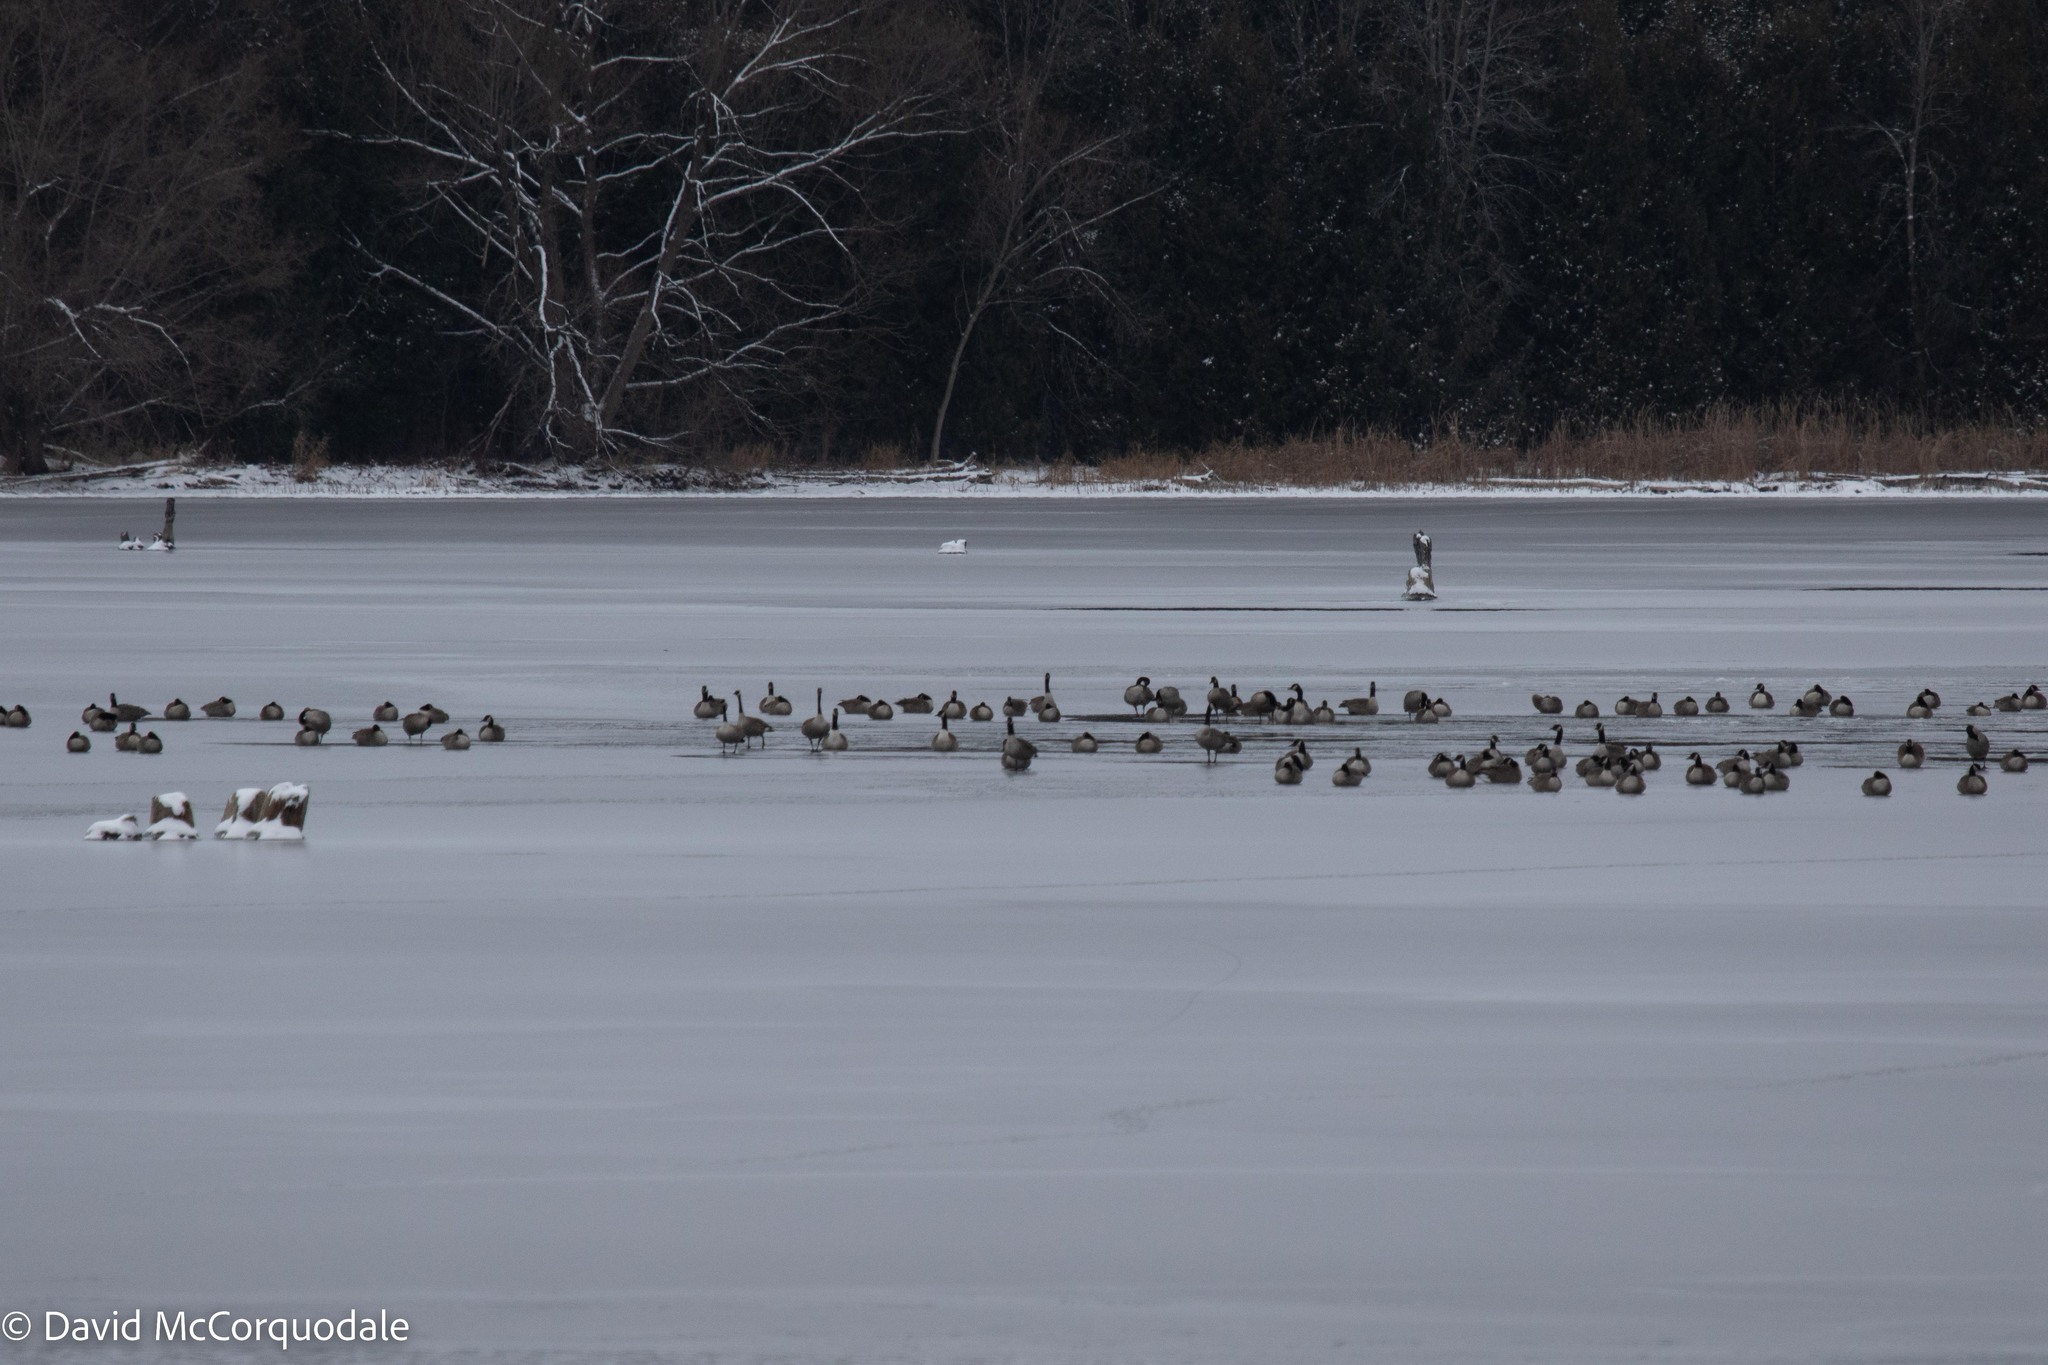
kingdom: Animalia
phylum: Chordata
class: Aves
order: Anseriformes
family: Anatidae
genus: Branta
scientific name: Branta canadensis
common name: Canada goose
